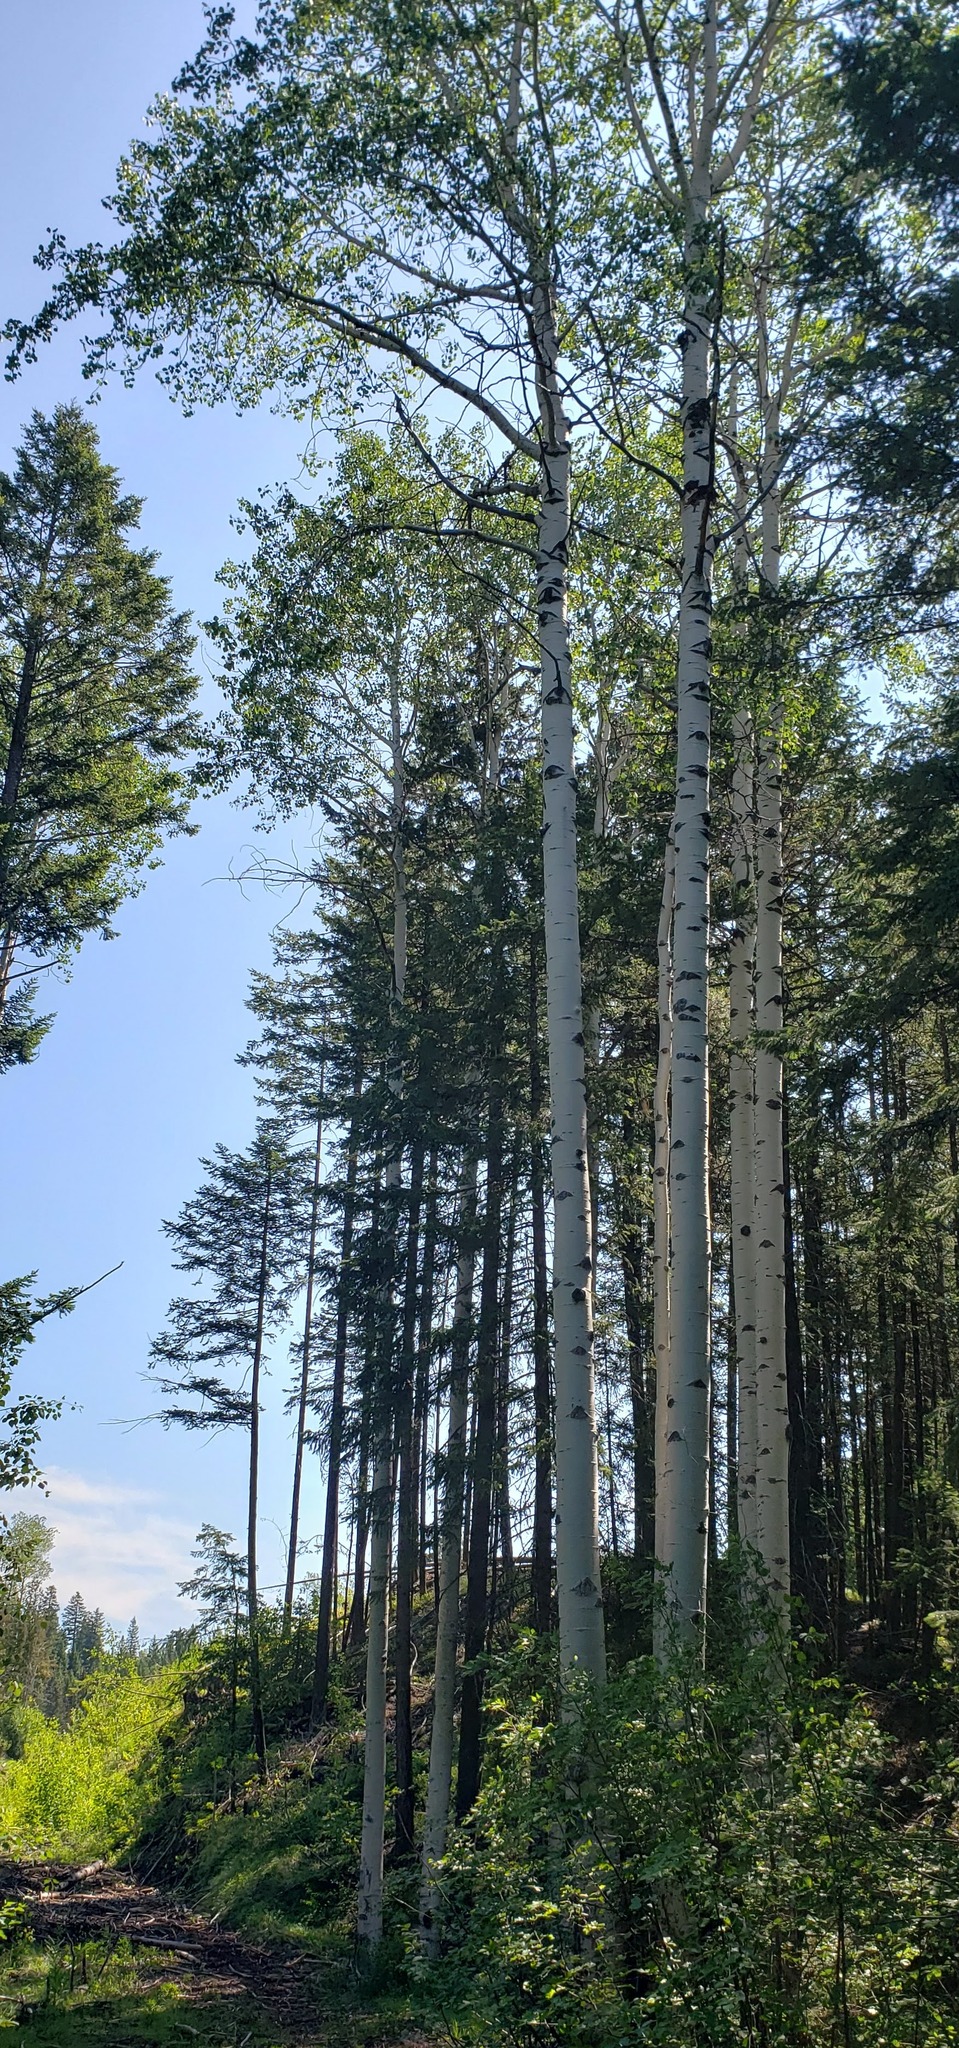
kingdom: Plantae
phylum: Tracheophyta
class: Magnoliopsida
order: Malpighiales
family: Salicaceae
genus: Populus
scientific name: Populus tremuloides
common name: Quaking aspen
